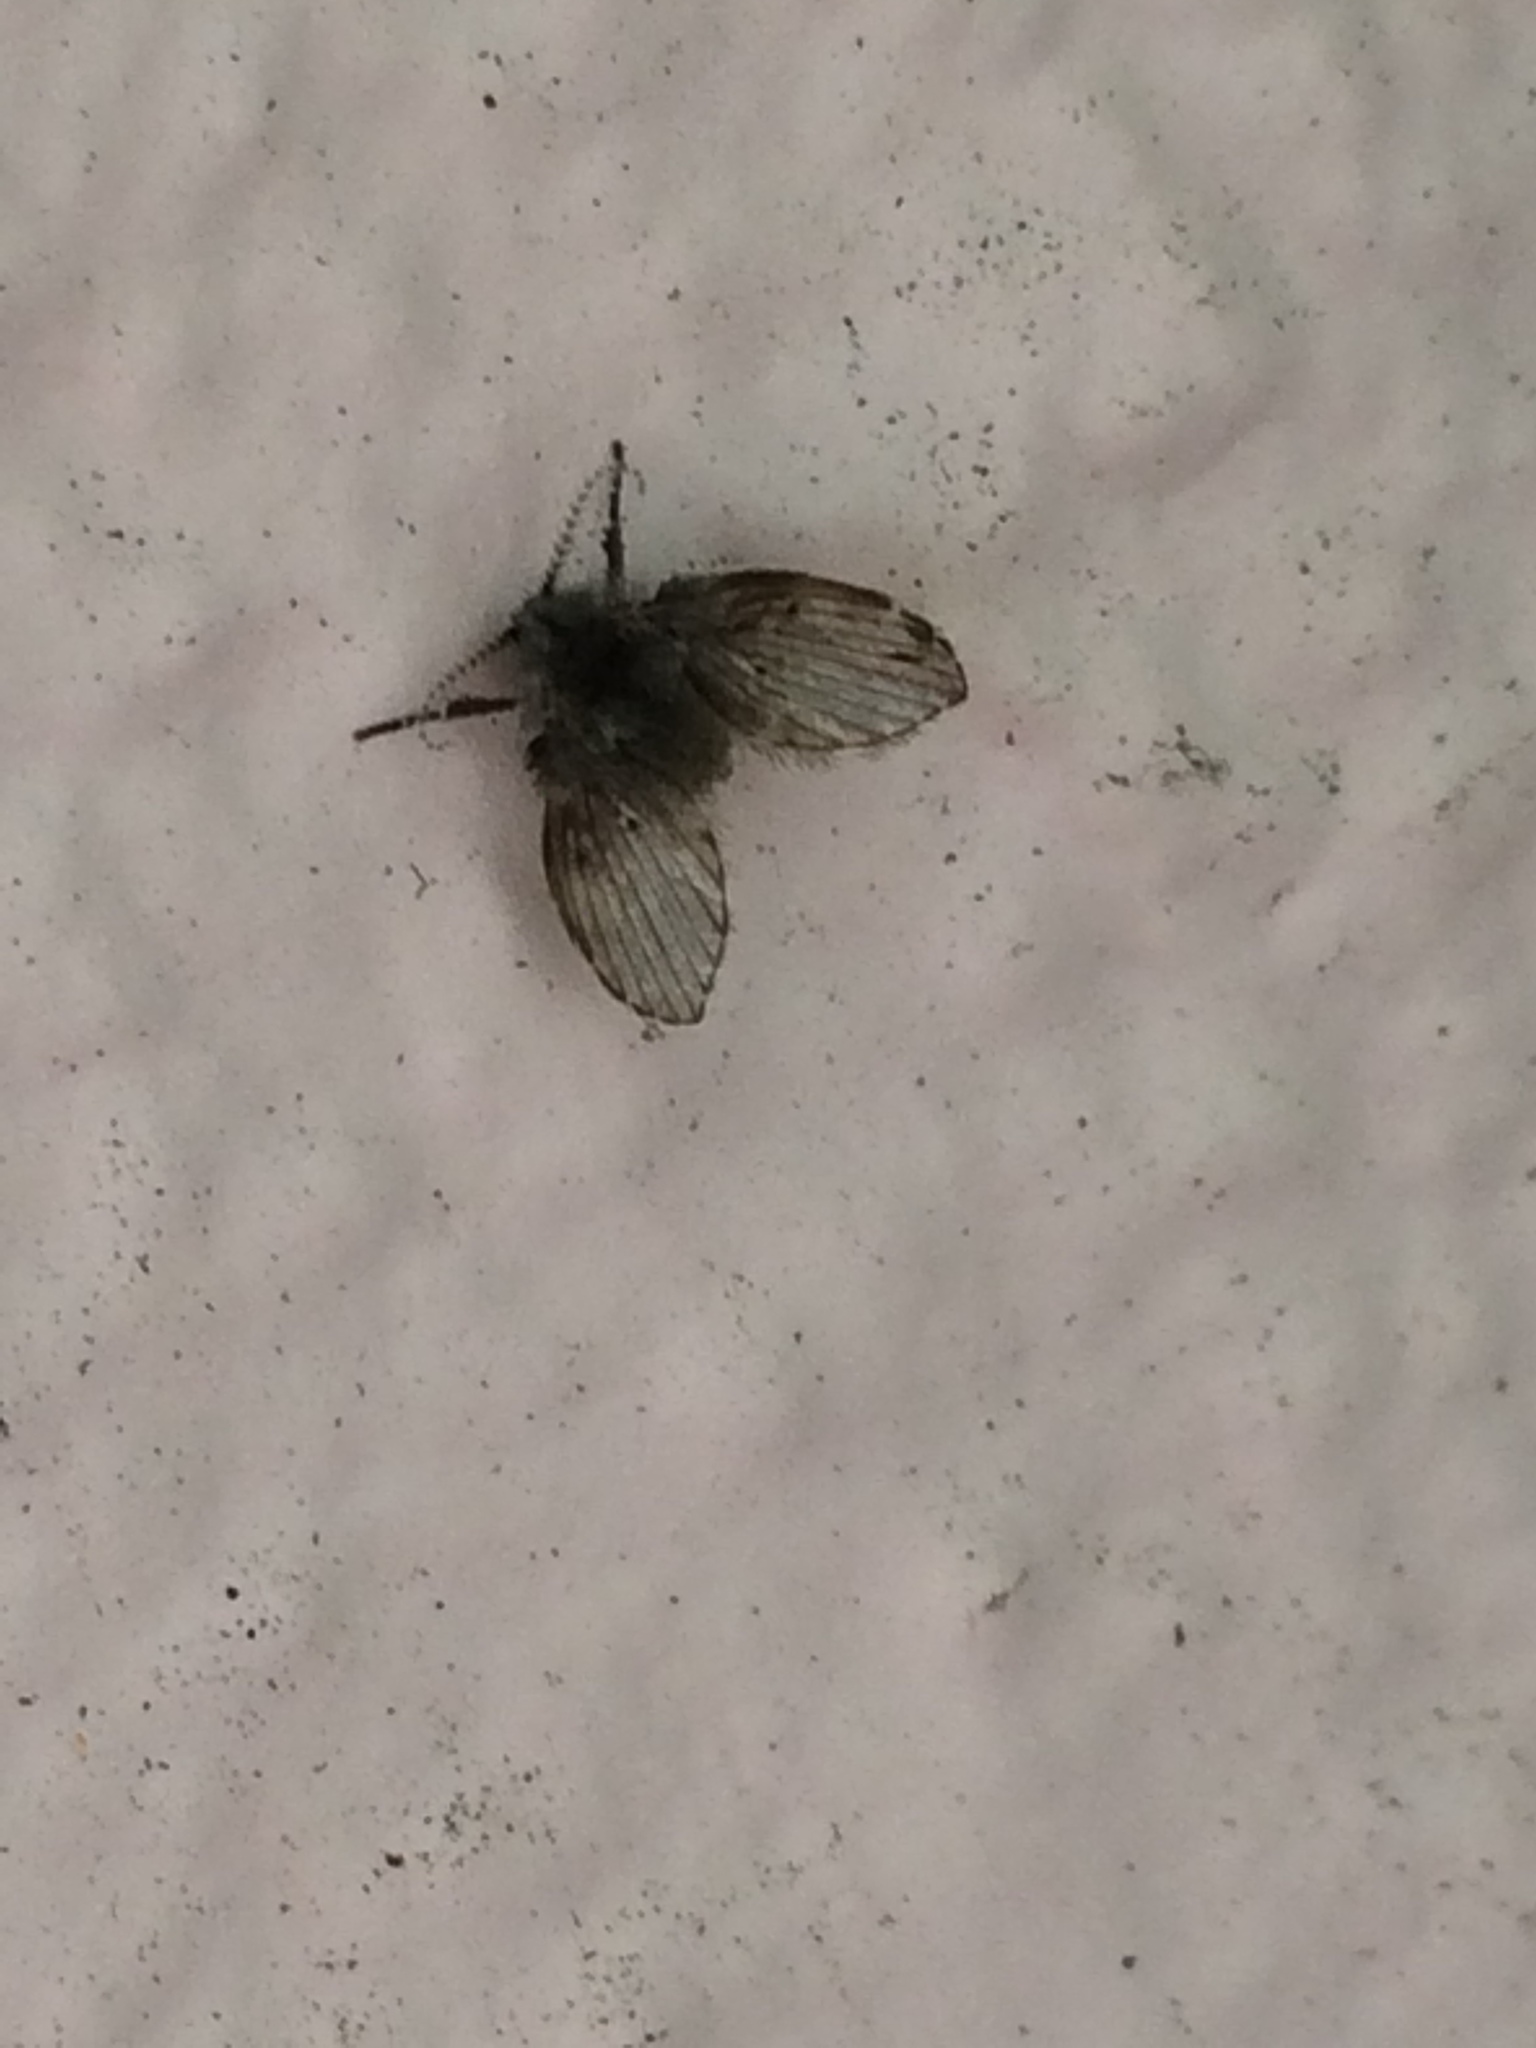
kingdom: Animalia
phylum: Arthropoda
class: Insecta
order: Diptera
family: Psychodidae
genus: Clogmia
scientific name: Clogmia albipunctatus
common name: White-spotted moth fly
